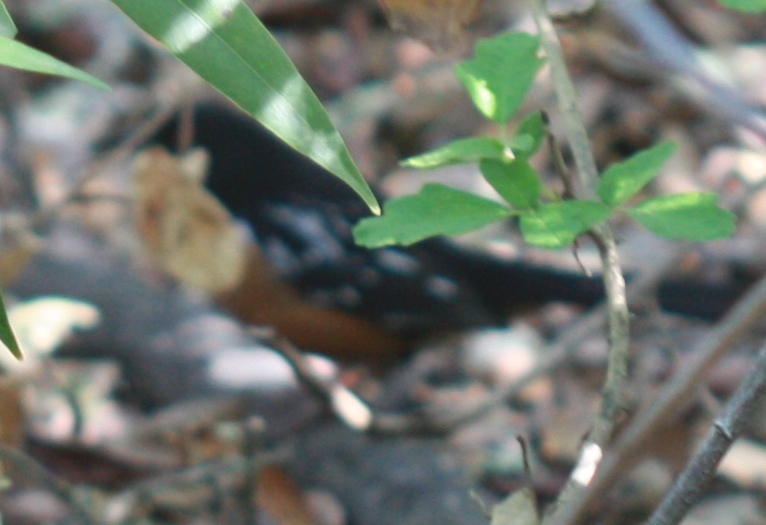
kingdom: Animalia
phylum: Chordata
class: Aves
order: Passeriformes
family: Passerellidae
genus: Pipilo
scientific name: Pipilo maculatus
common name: Spotted towhee
